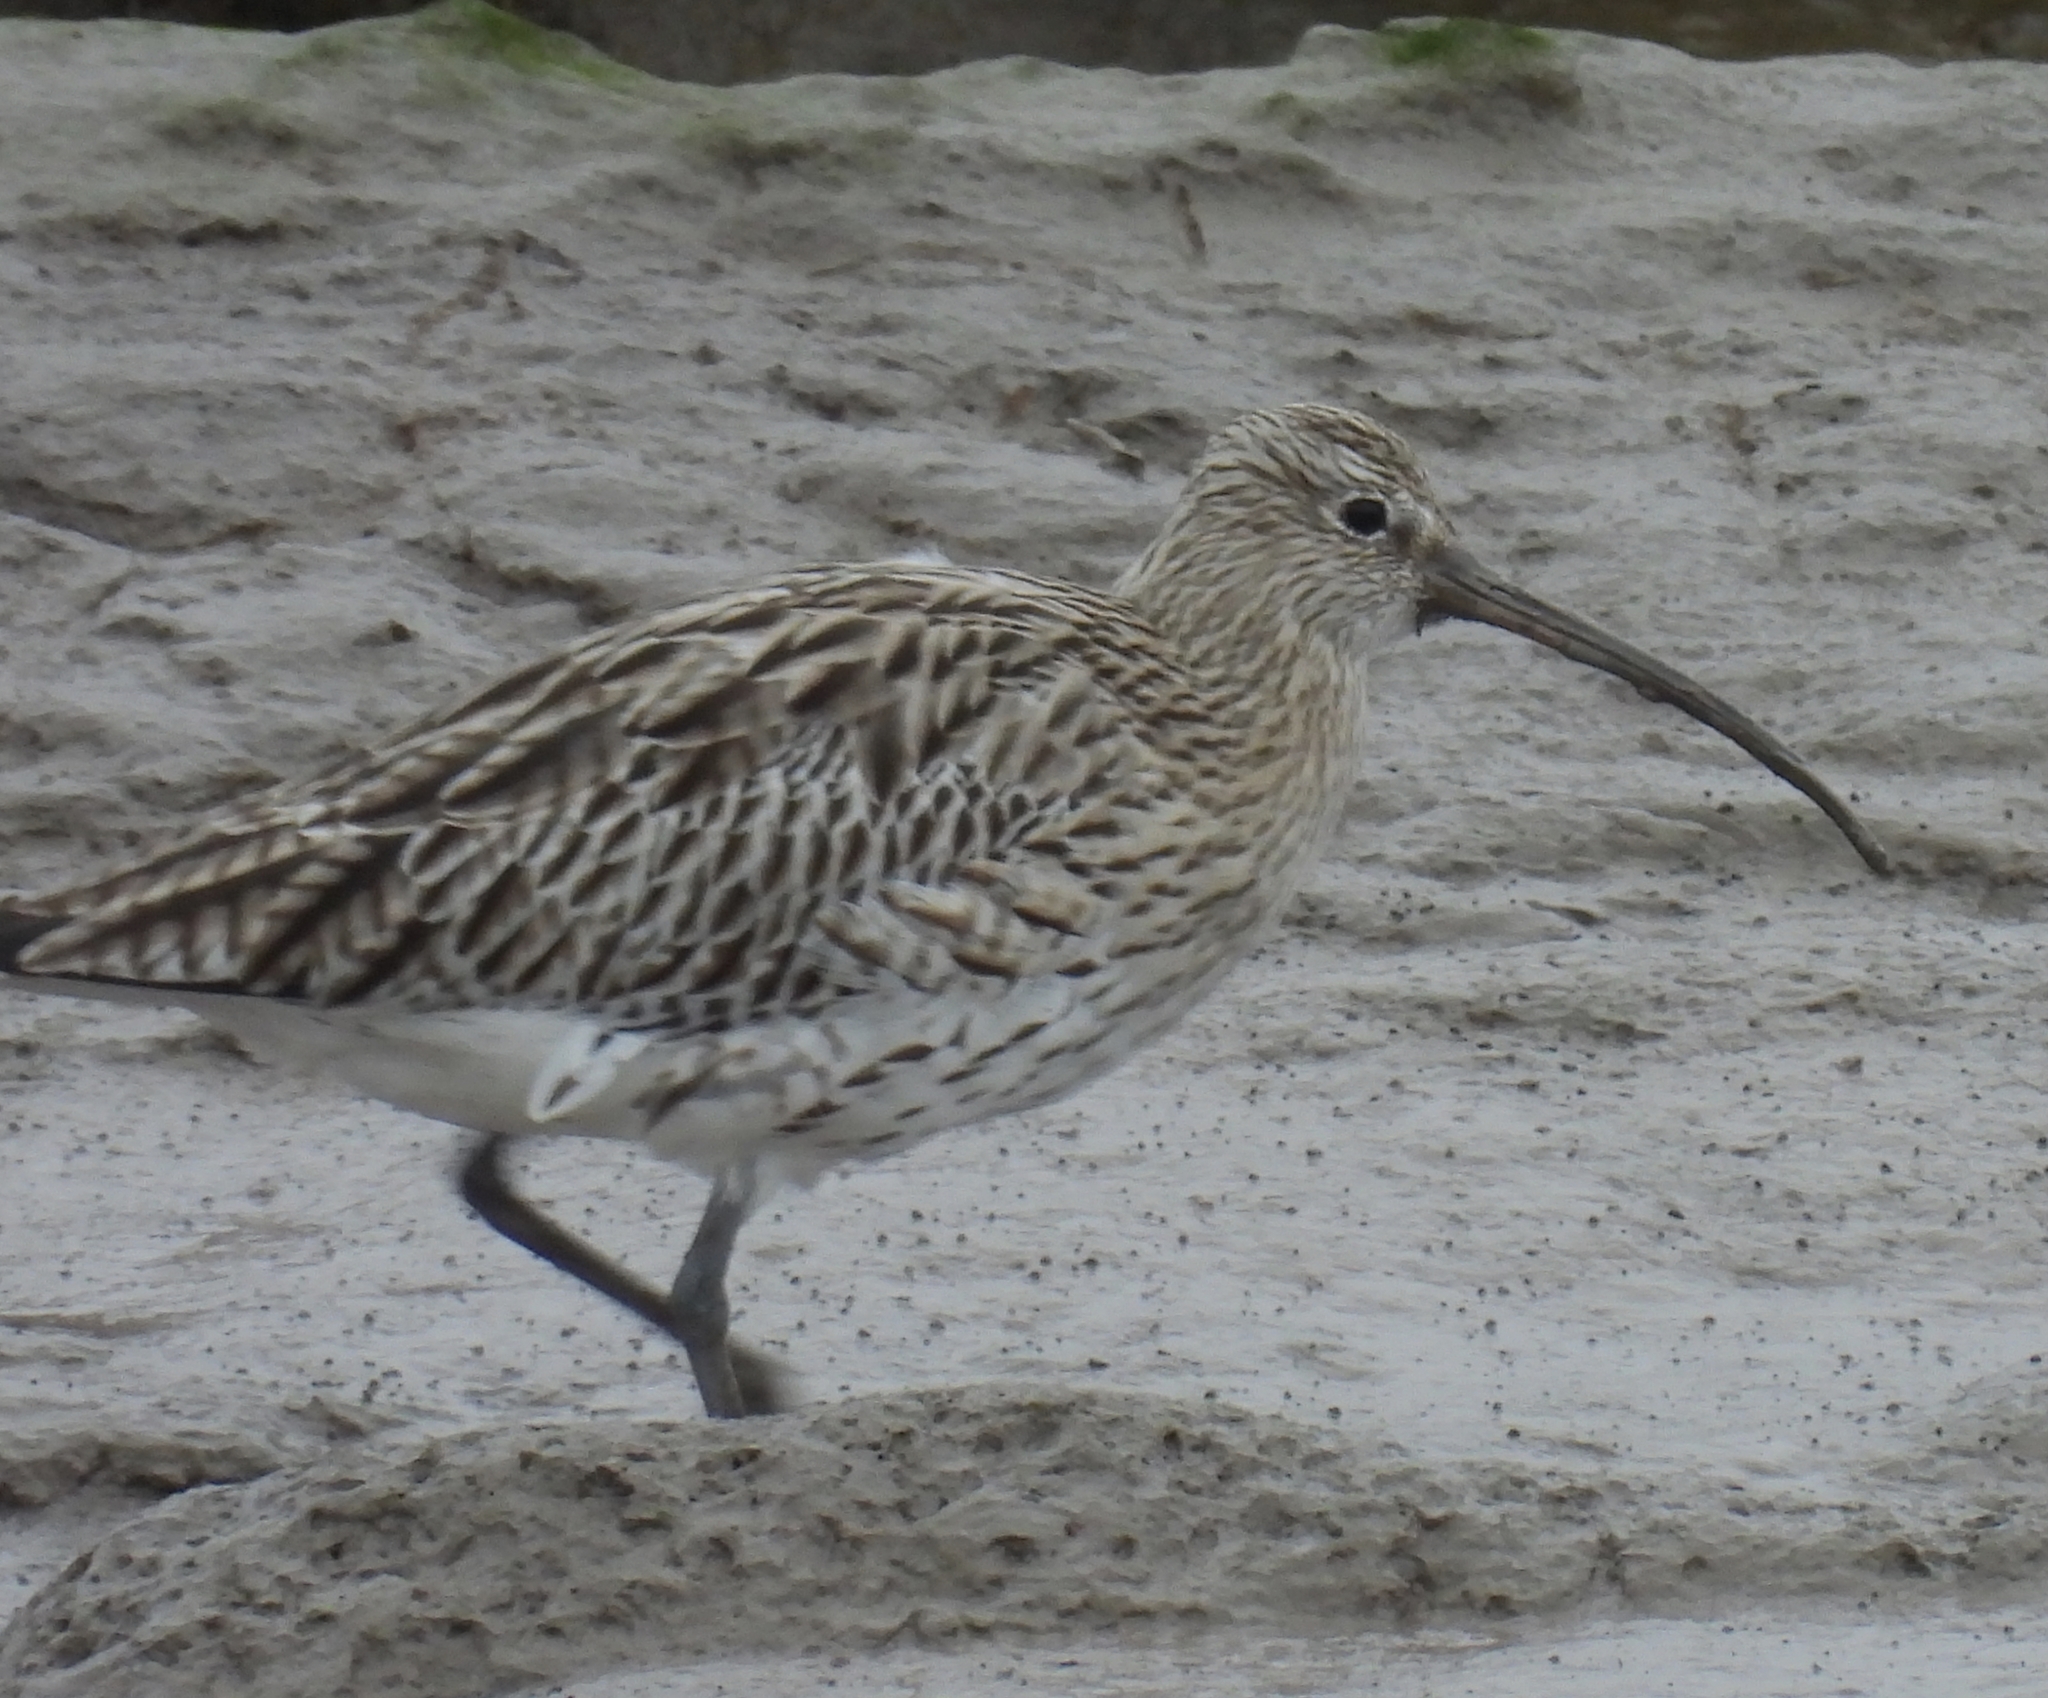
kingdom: Animalia
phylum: Chordata
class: Aves
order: Charadriiformes
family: Scolopacidae
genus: Numenius
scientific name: Numenius arquata
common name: Eurasian curlew
